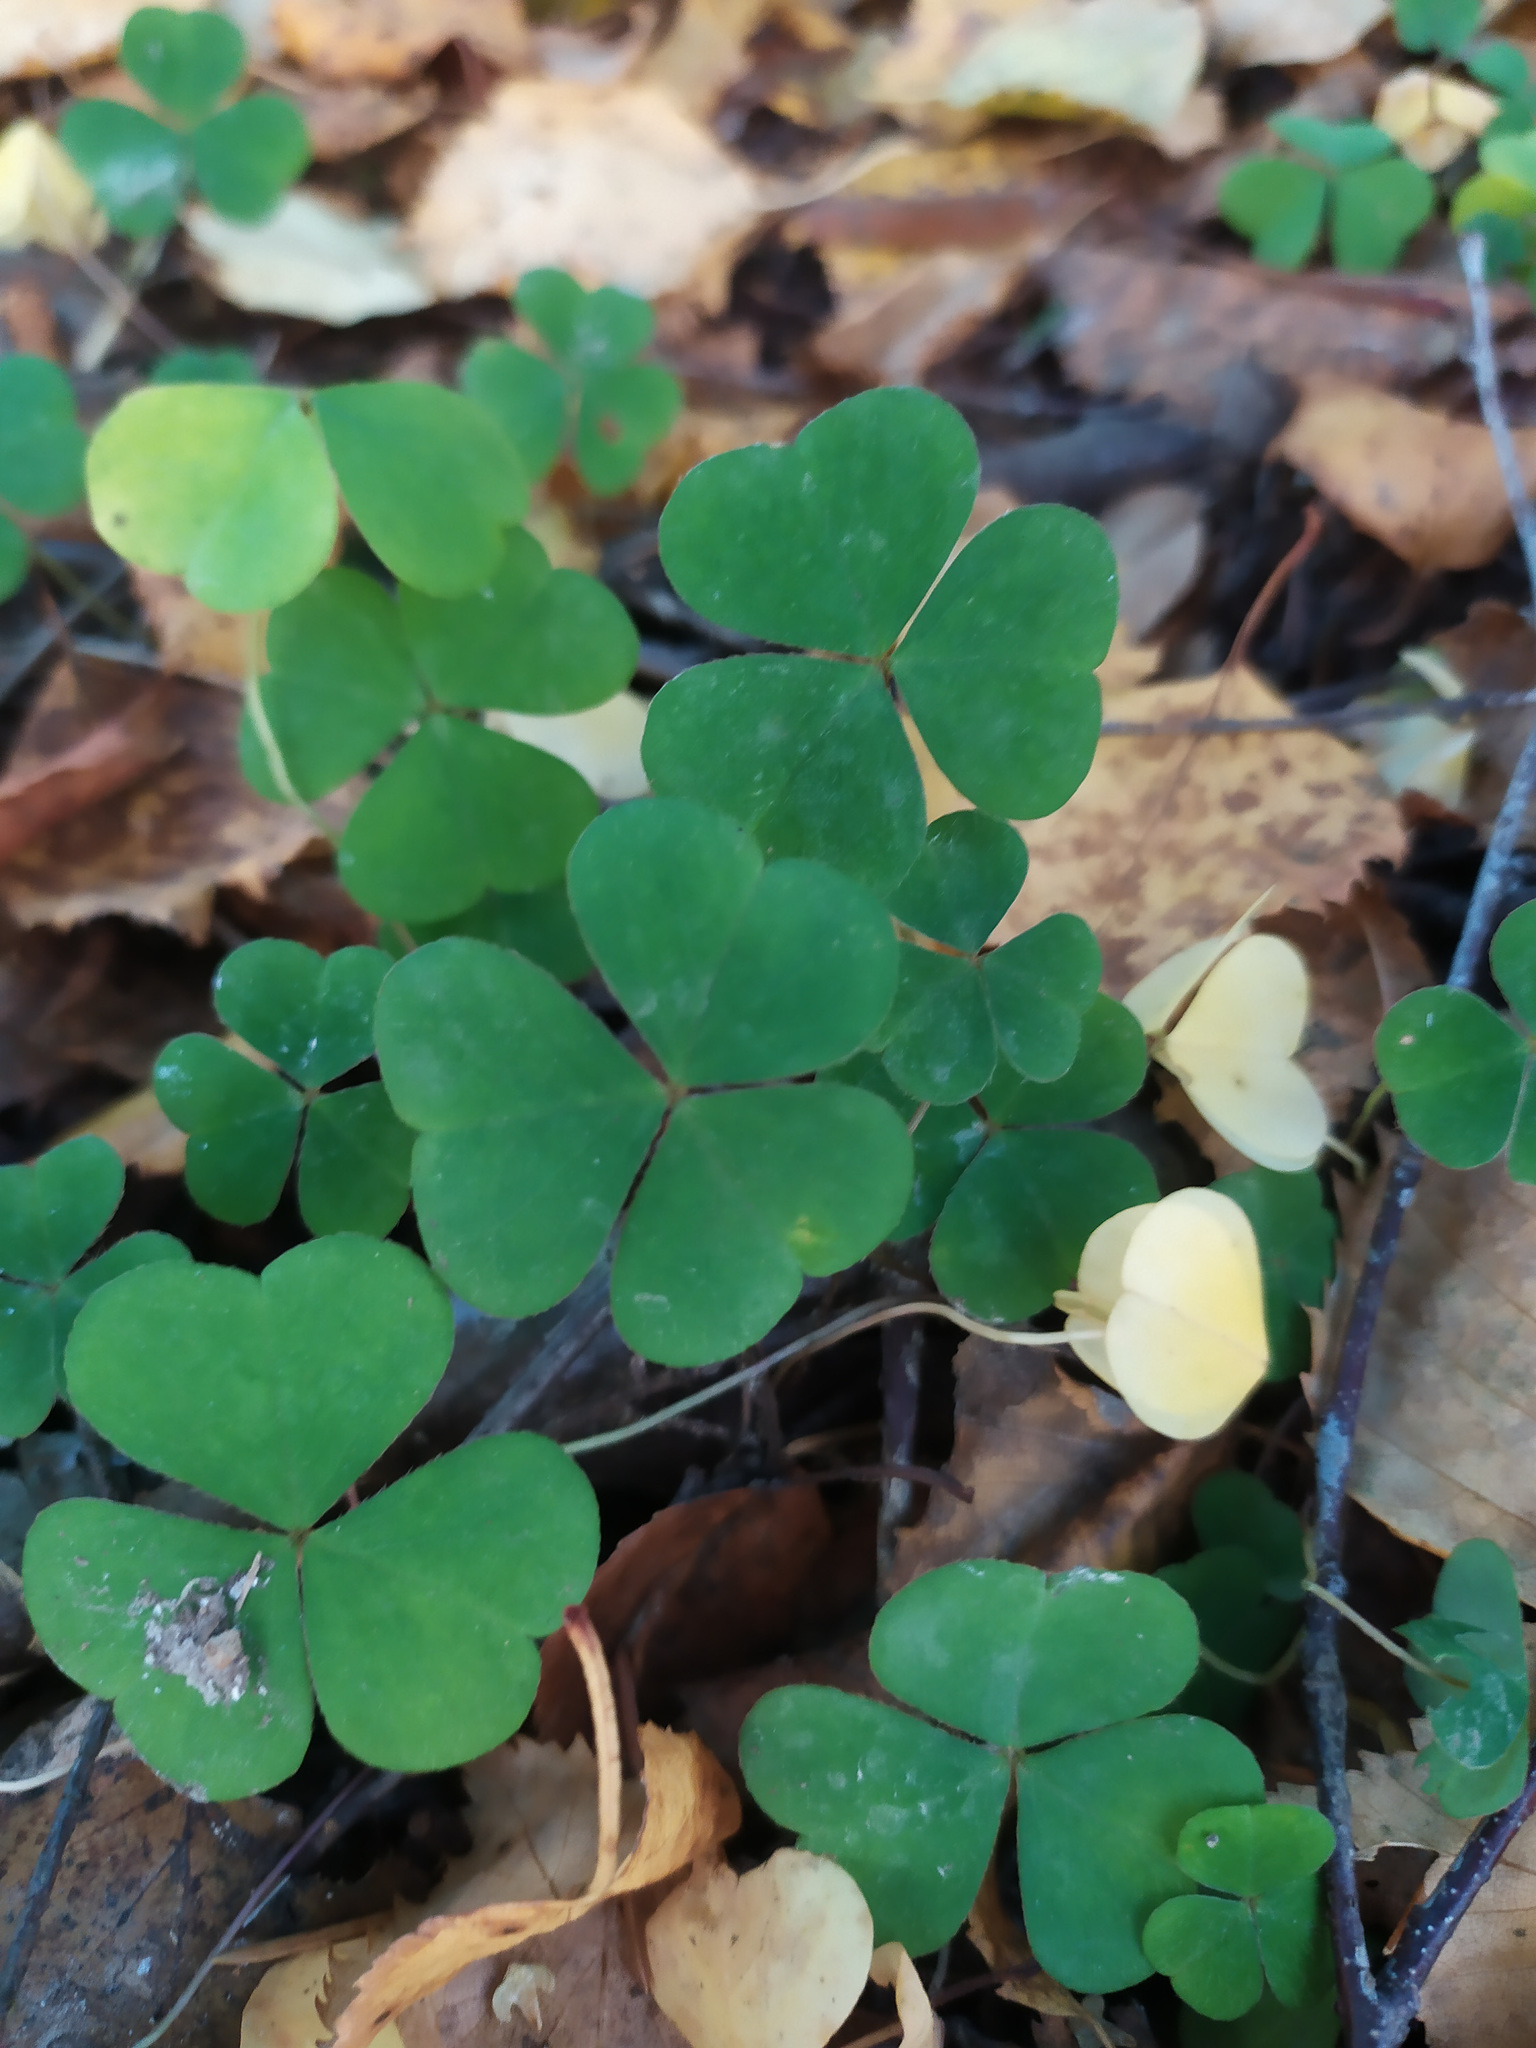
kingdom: Plantae
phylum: Tracheophyta
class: Magnoliopsida
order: Oxalidales
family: Oxalidaceae
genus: Oxalis
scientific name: Oxalis acetosella
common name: Wood-sorrel
